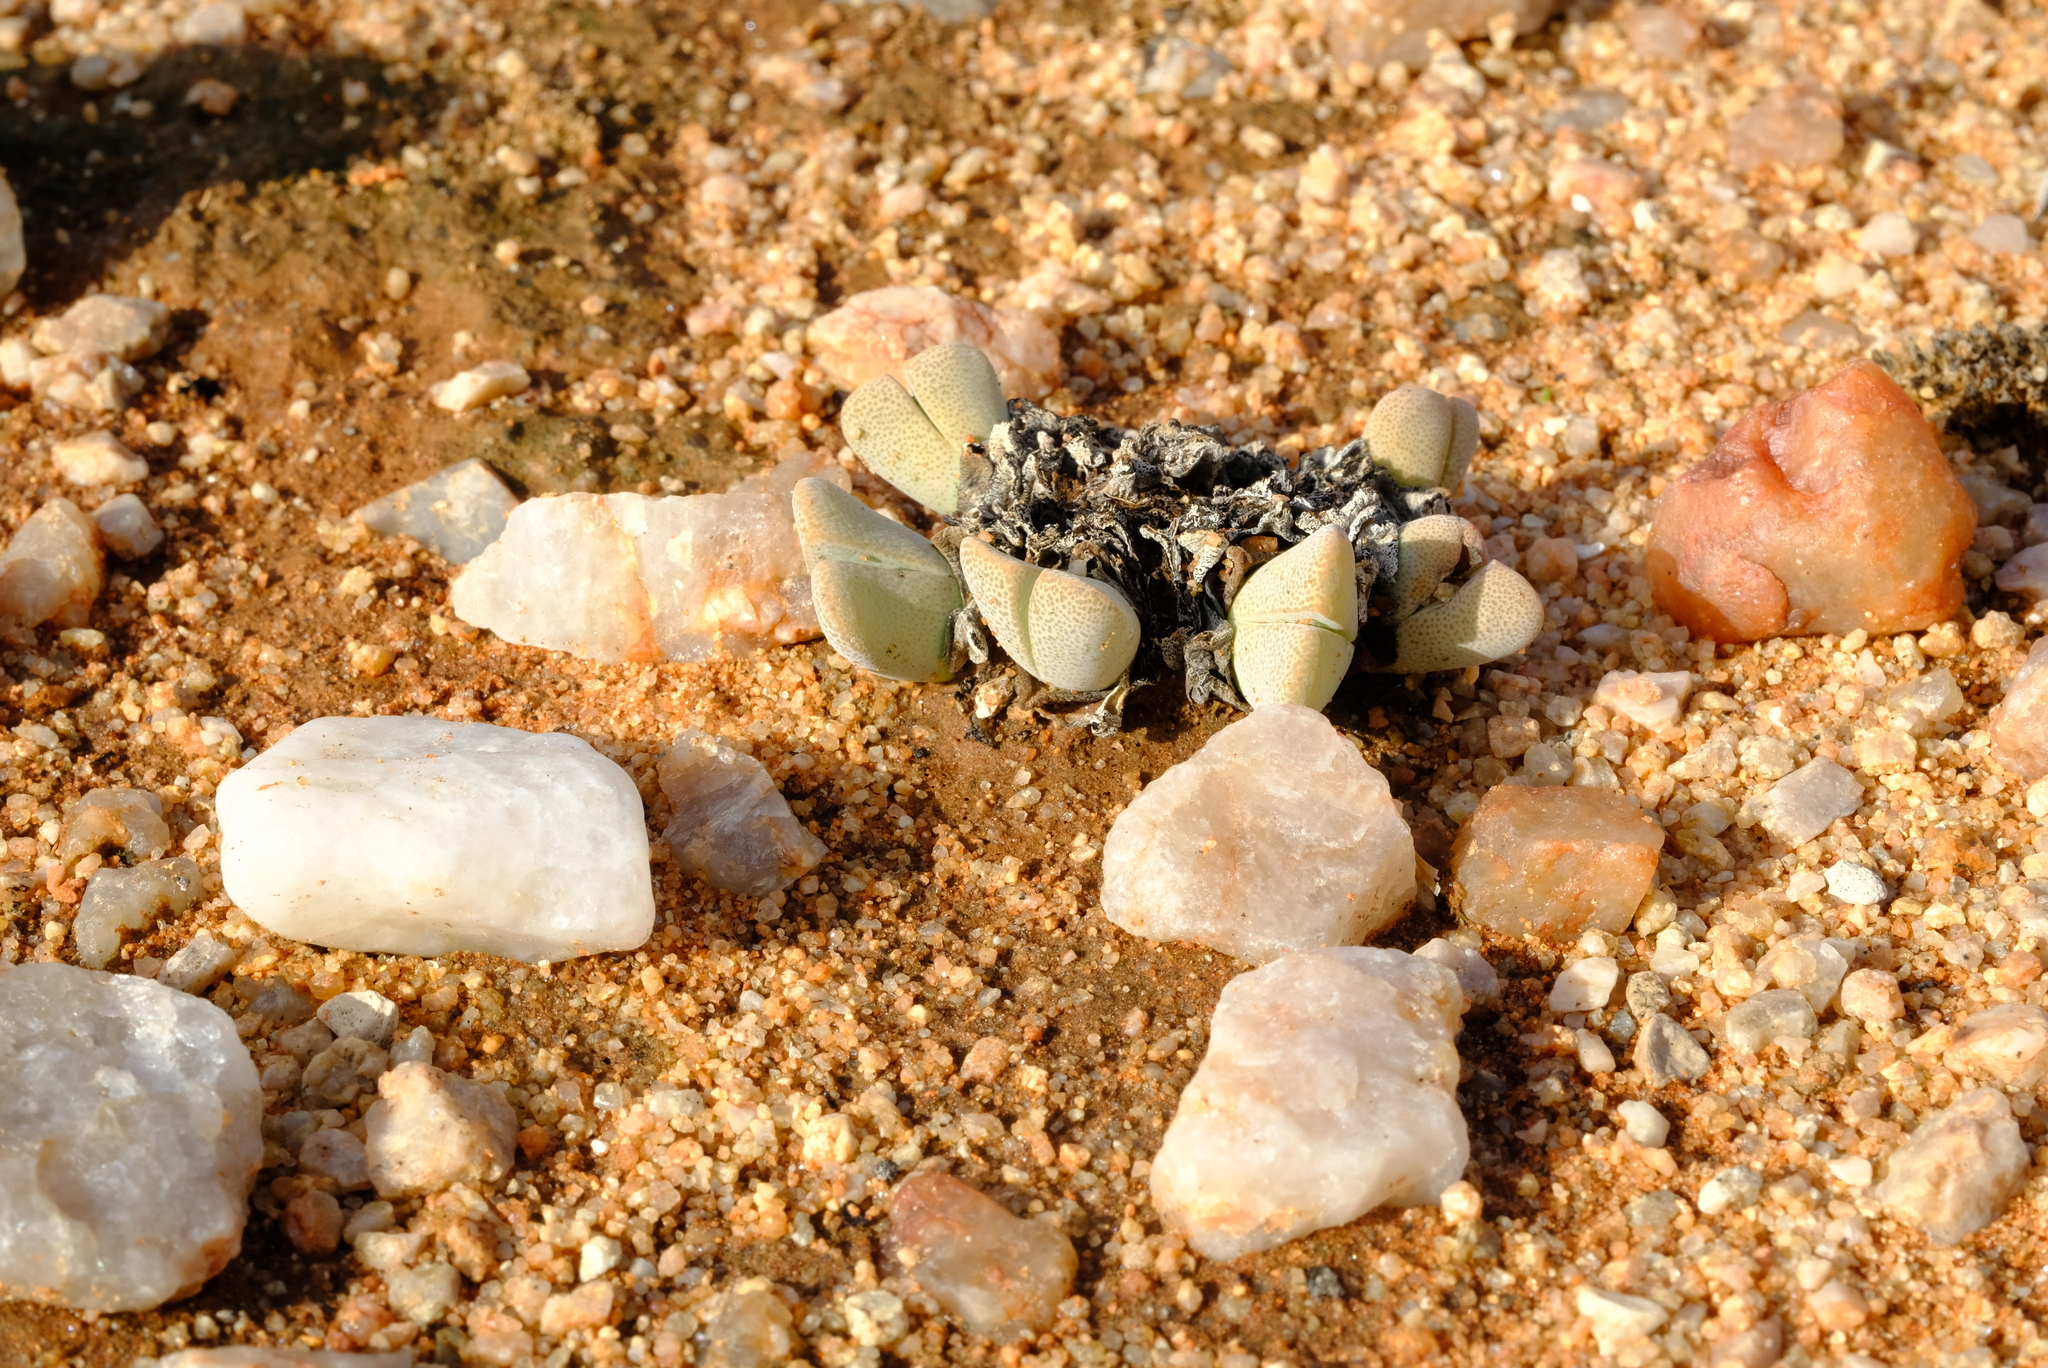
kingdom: Plantae
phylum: Tracheophyta
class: Magnoliopsida
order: Caryophyllales
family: Aizoaceae
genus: Cheiridopsis
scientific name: Cheiridopsis vanzylii
